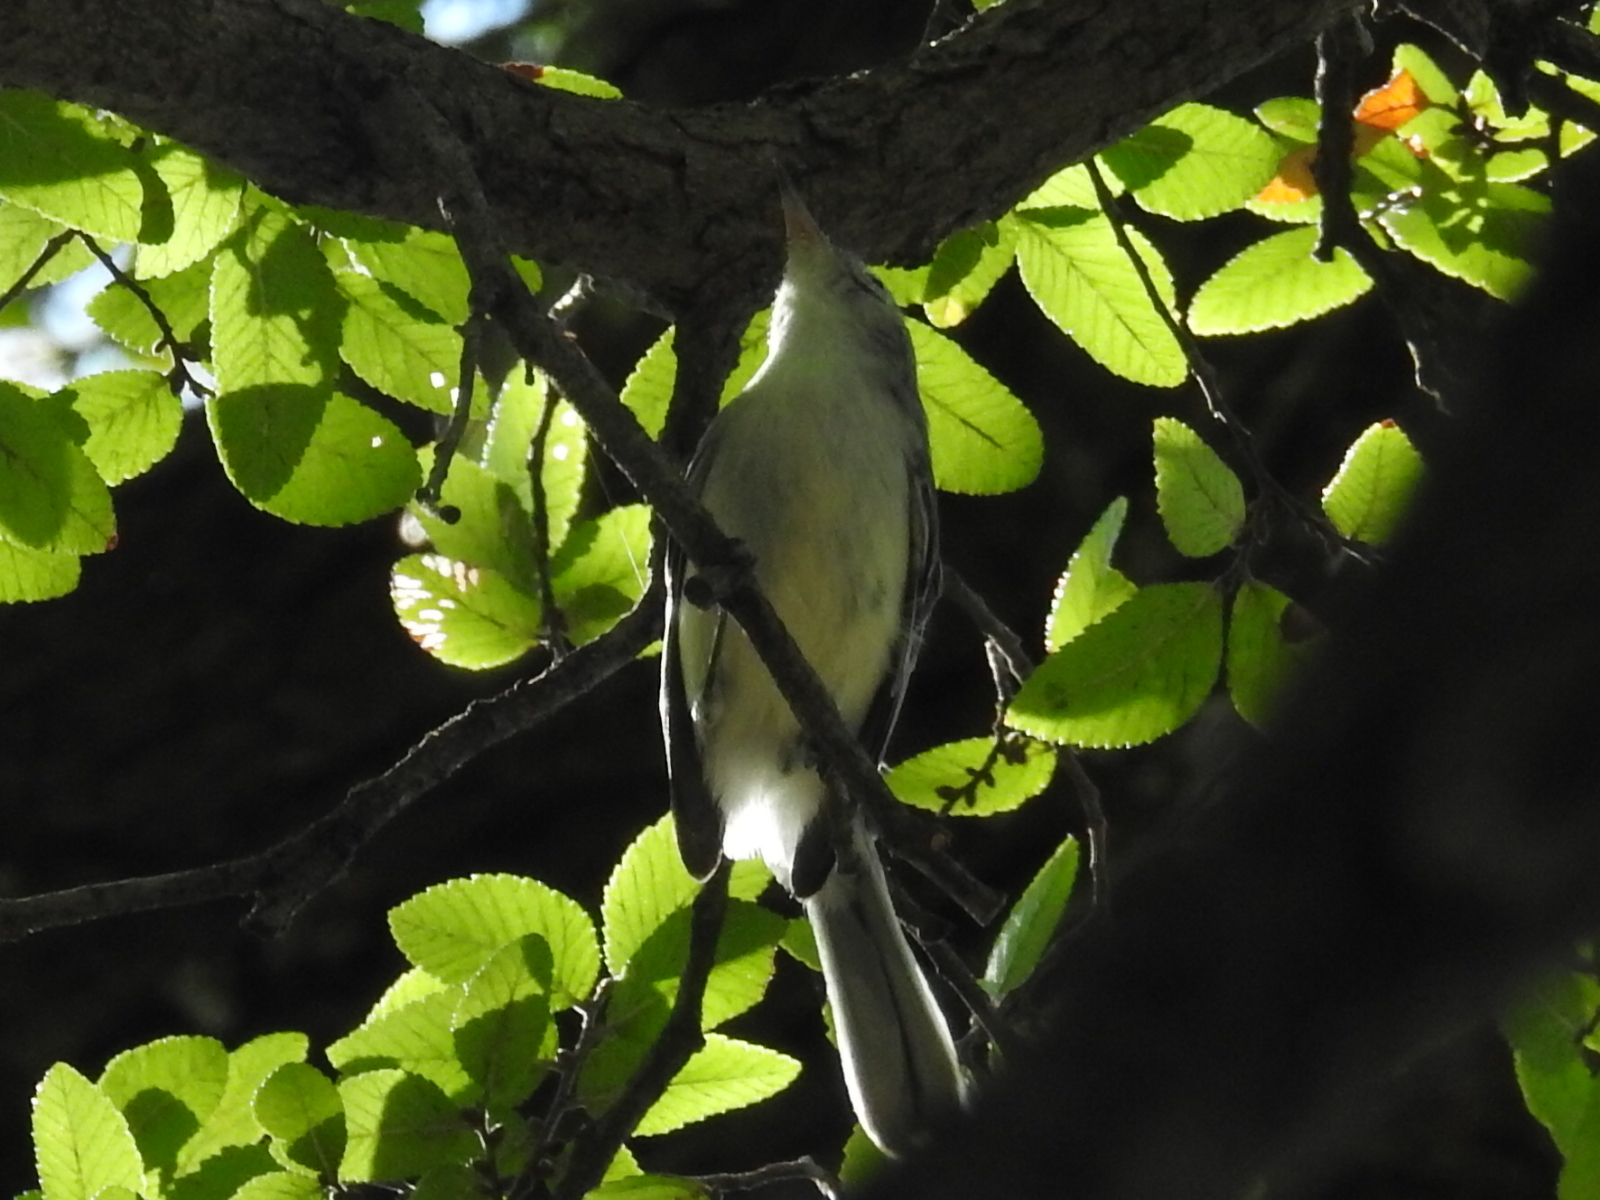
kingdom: Animalia
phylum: Chordata
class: Aves
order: Passeriformes
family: Polioptilidae
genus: Polioptila
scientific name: Polioptila caerulea
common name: Blue-gray gnatcatcher
